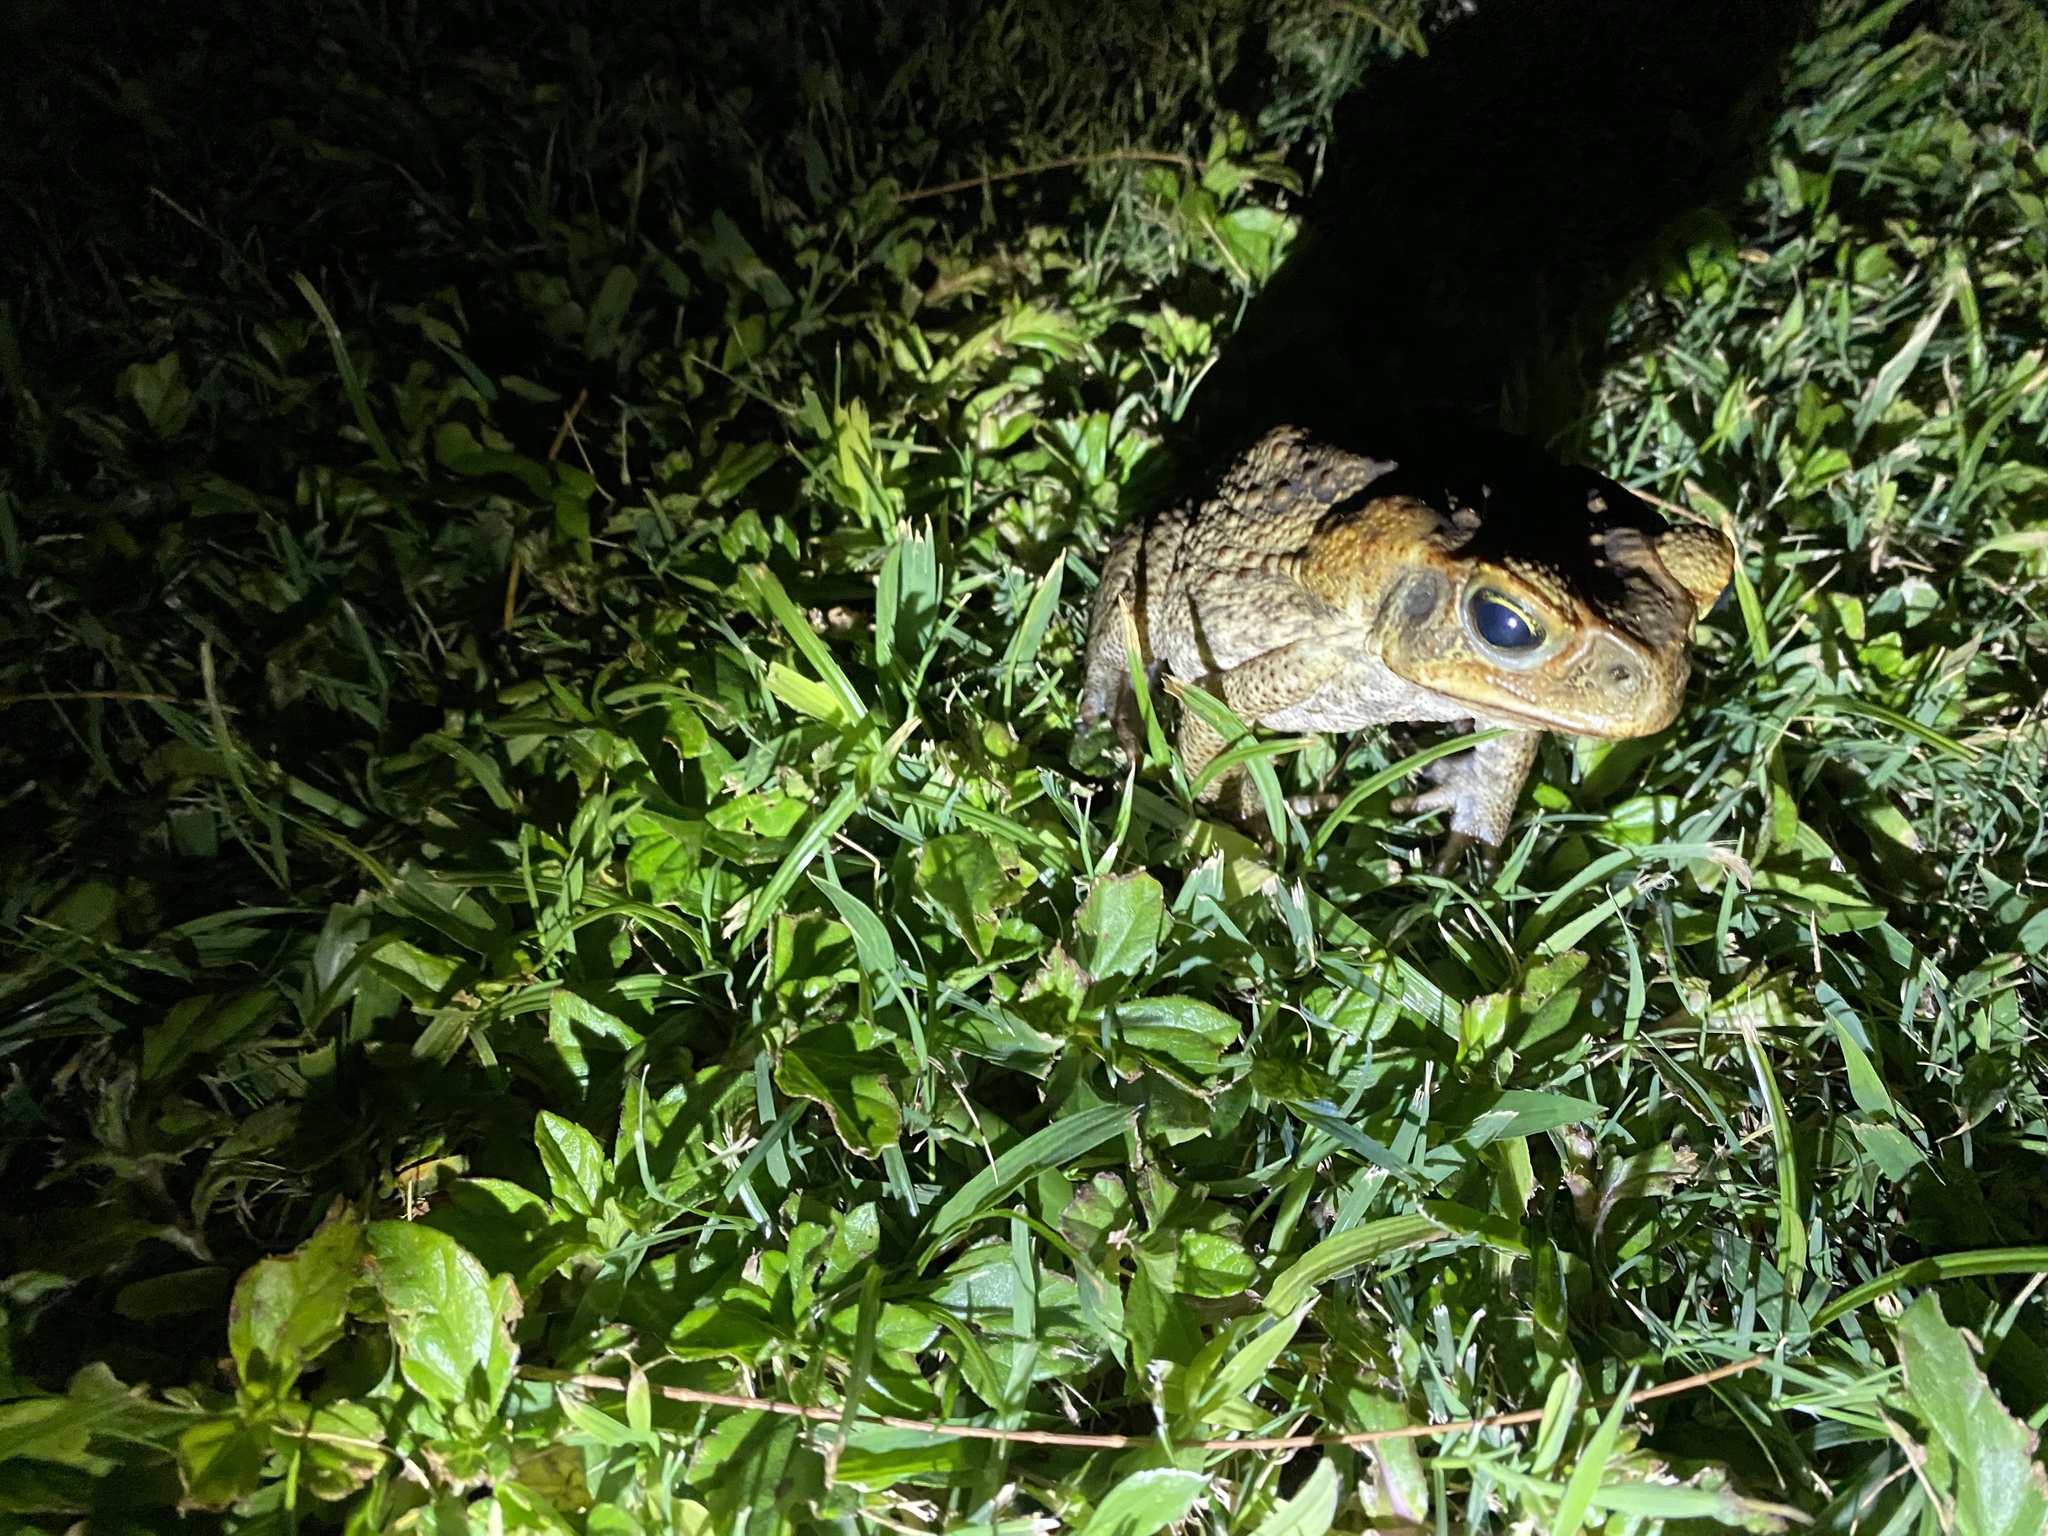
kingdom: Animalia
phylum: Chordata
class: Amphibia
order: Anura
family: Bufonidae
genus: Rhinella
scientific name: Rhinella marina
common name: Cane toad
